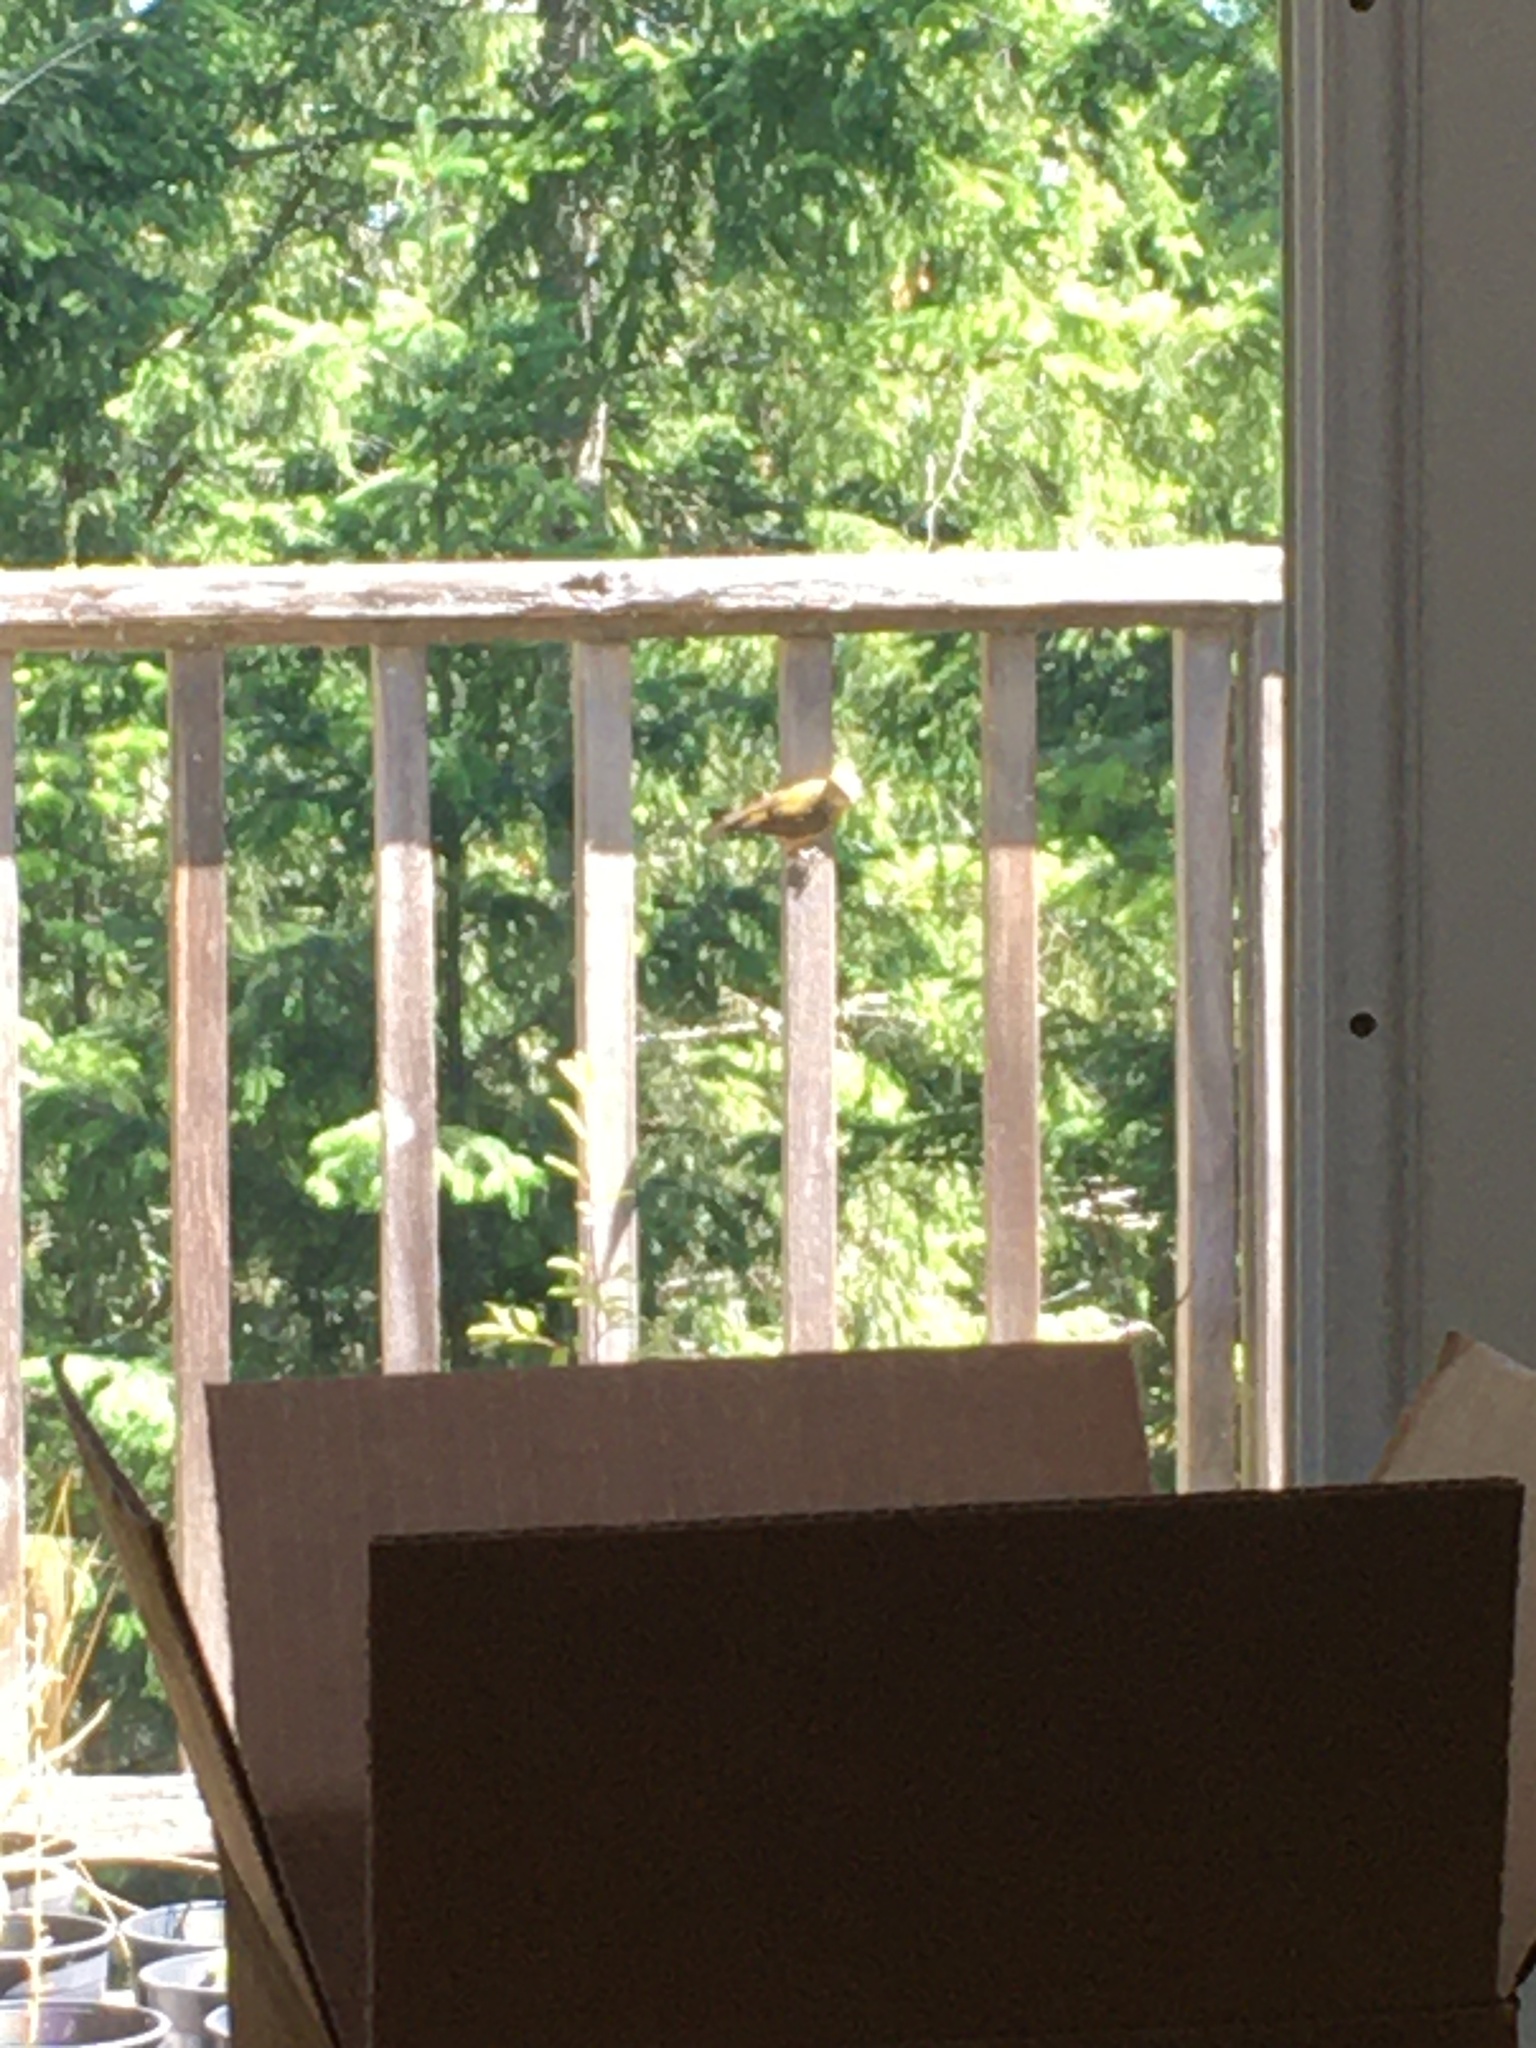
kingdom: Animalia
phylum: Chordata
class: Aves
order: Passeriformes
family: Fringillidae
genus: Loxia
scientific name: Loxia curvirostra
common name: Red crossbill
